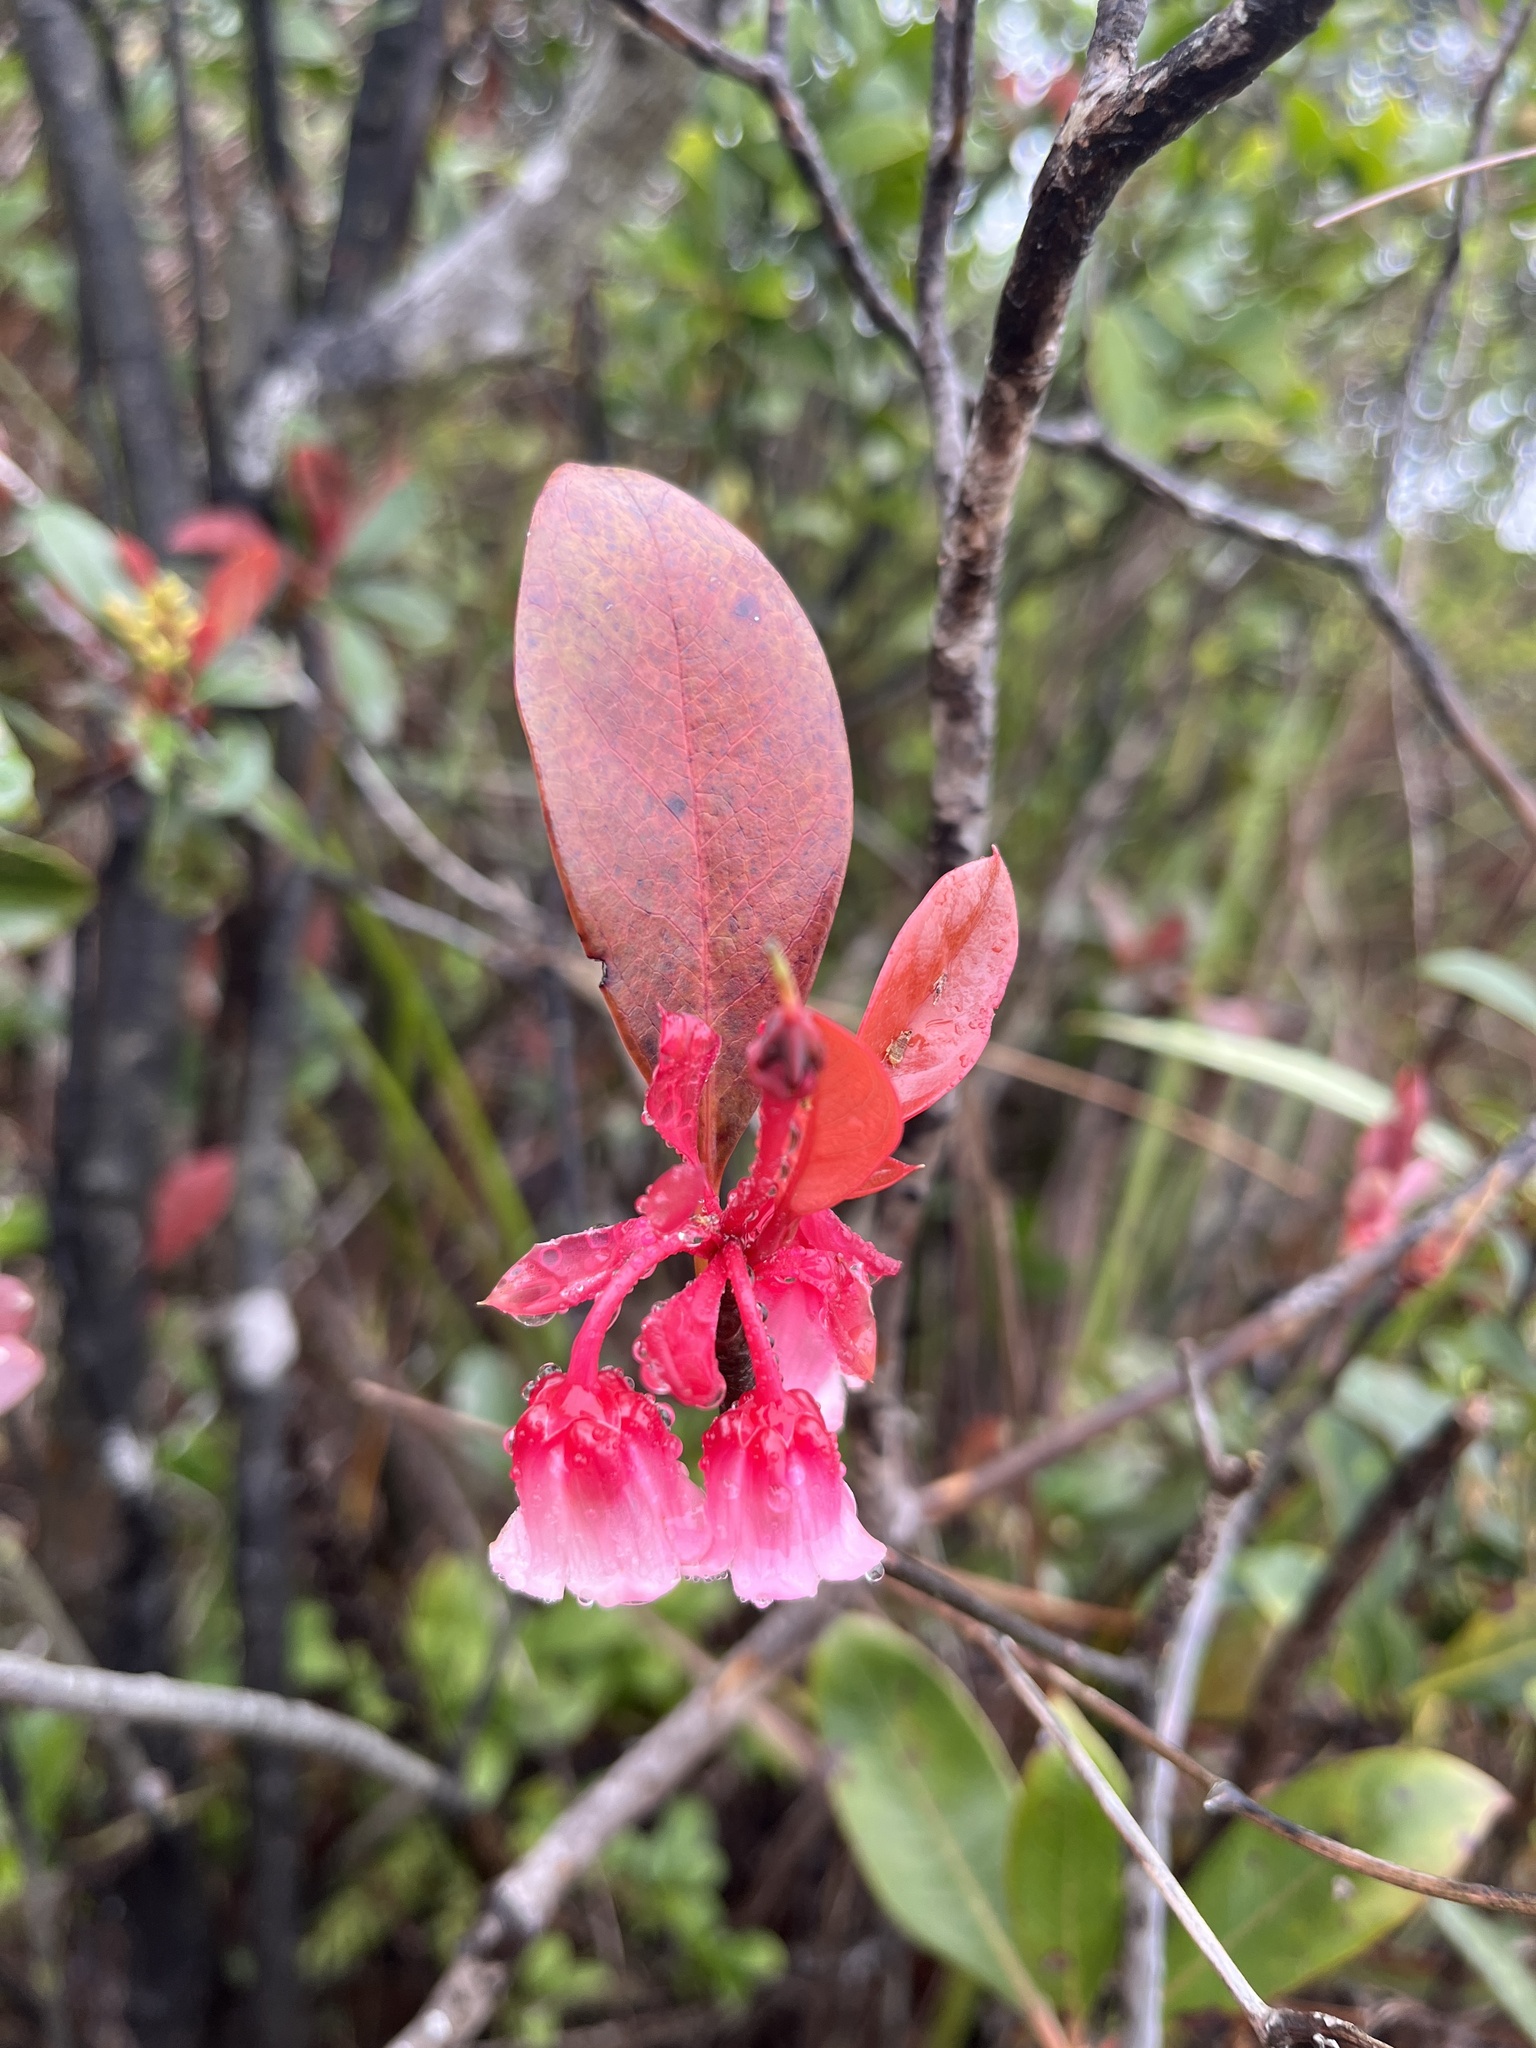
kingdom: Plantae
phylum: Tracheophyta
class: Magnoliopsida
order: Ericales
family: Ericaceae
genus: Enkianthus
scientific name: Enkianthus quinqueflorus
